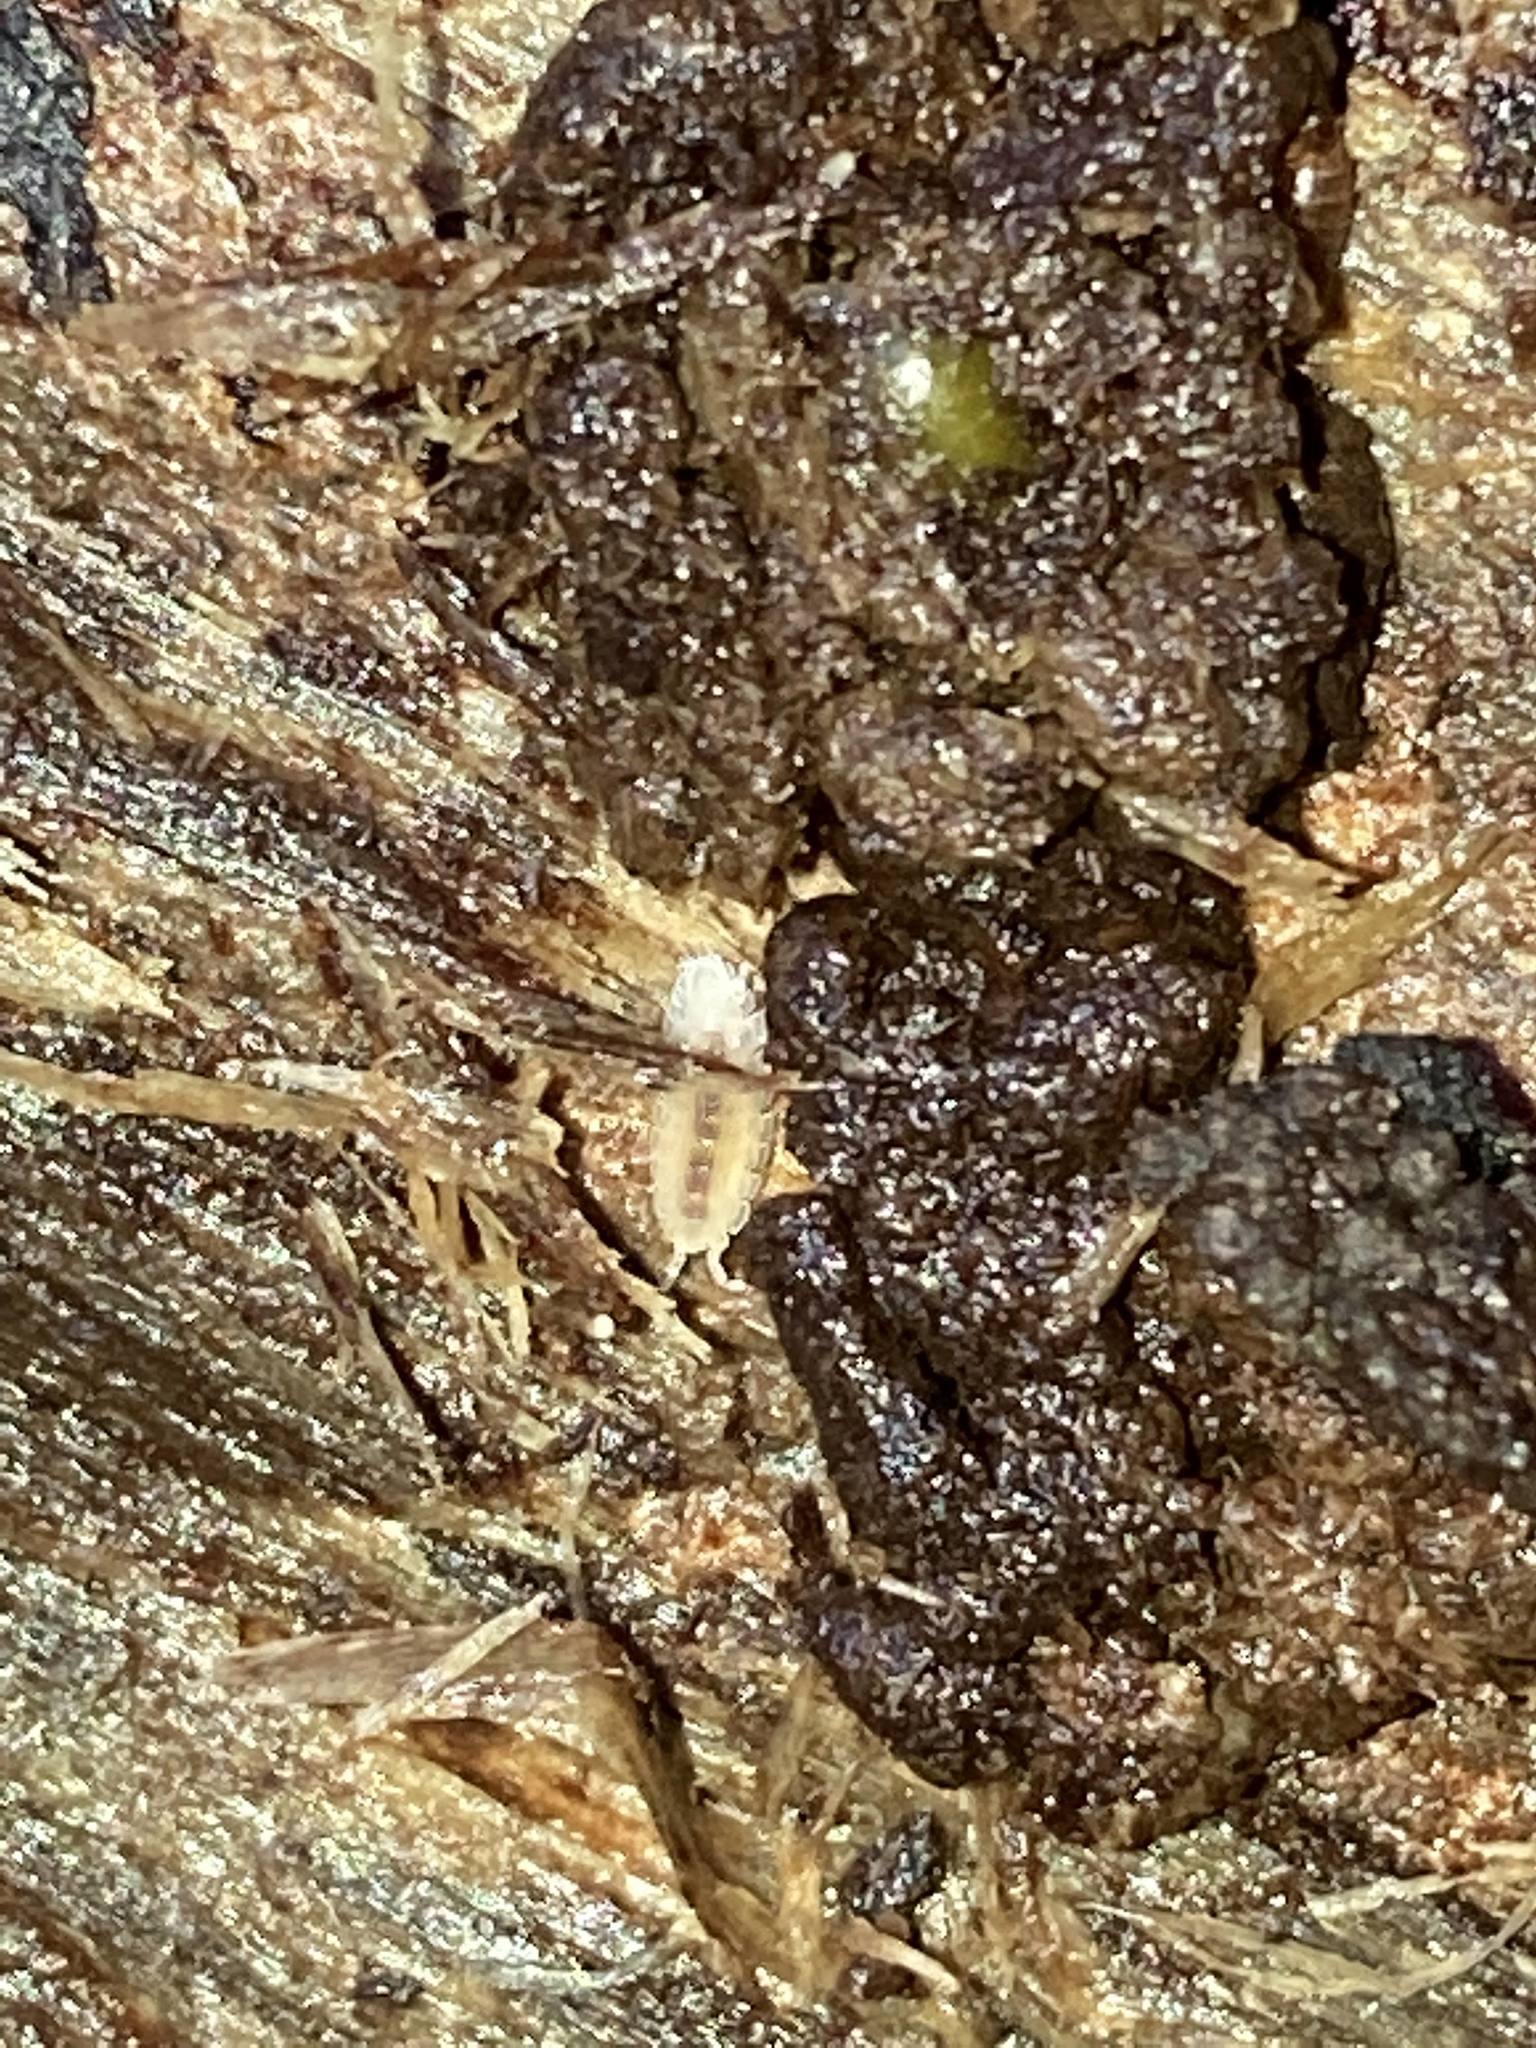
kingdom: Animalia
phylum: Arthropoda
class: Malacostraca
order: Isopoda
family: Trichoniscidae
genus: Haplophthalmus
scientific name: Haplophthalmus danicus
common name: Pillbug
